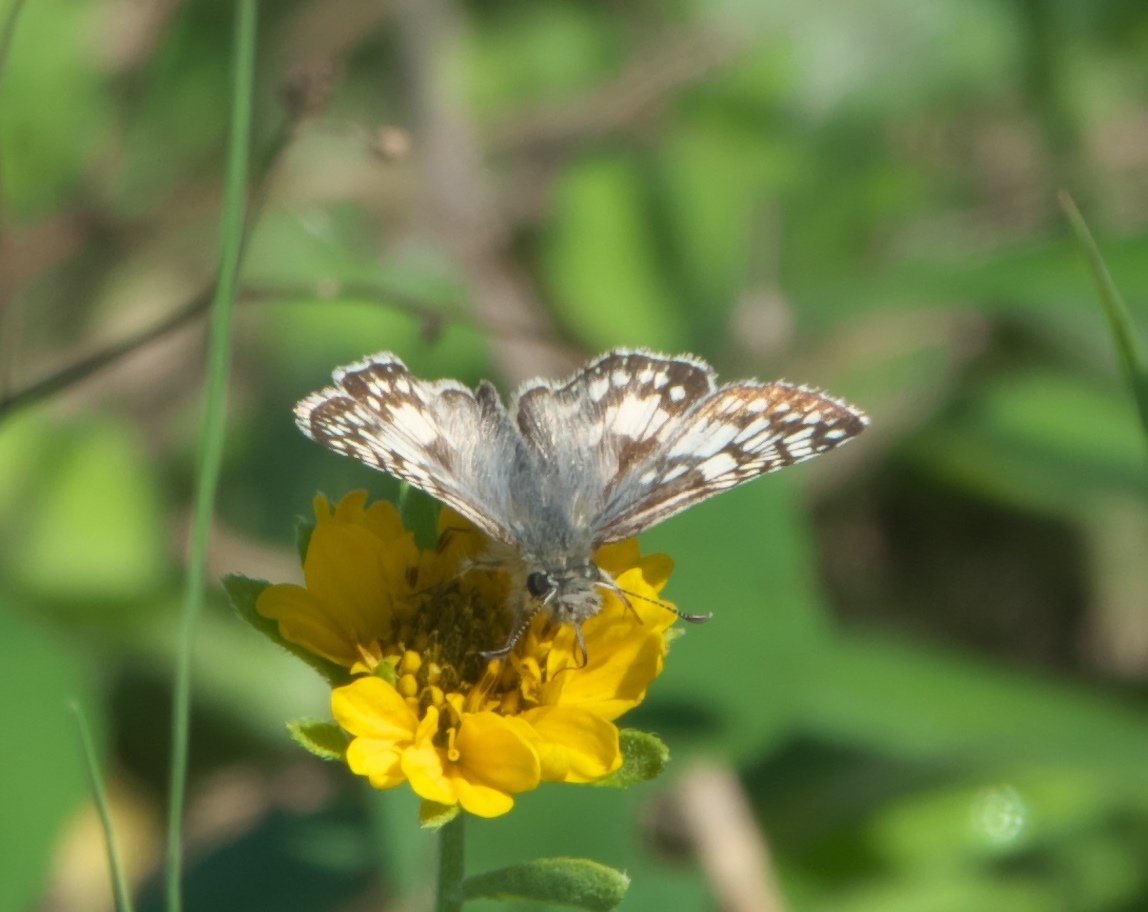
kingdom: Animalia
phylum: Arthropoda
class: Insecta
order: Lepidoptera
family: Hesperiidae
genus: Burnsius
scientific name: Burnsius
